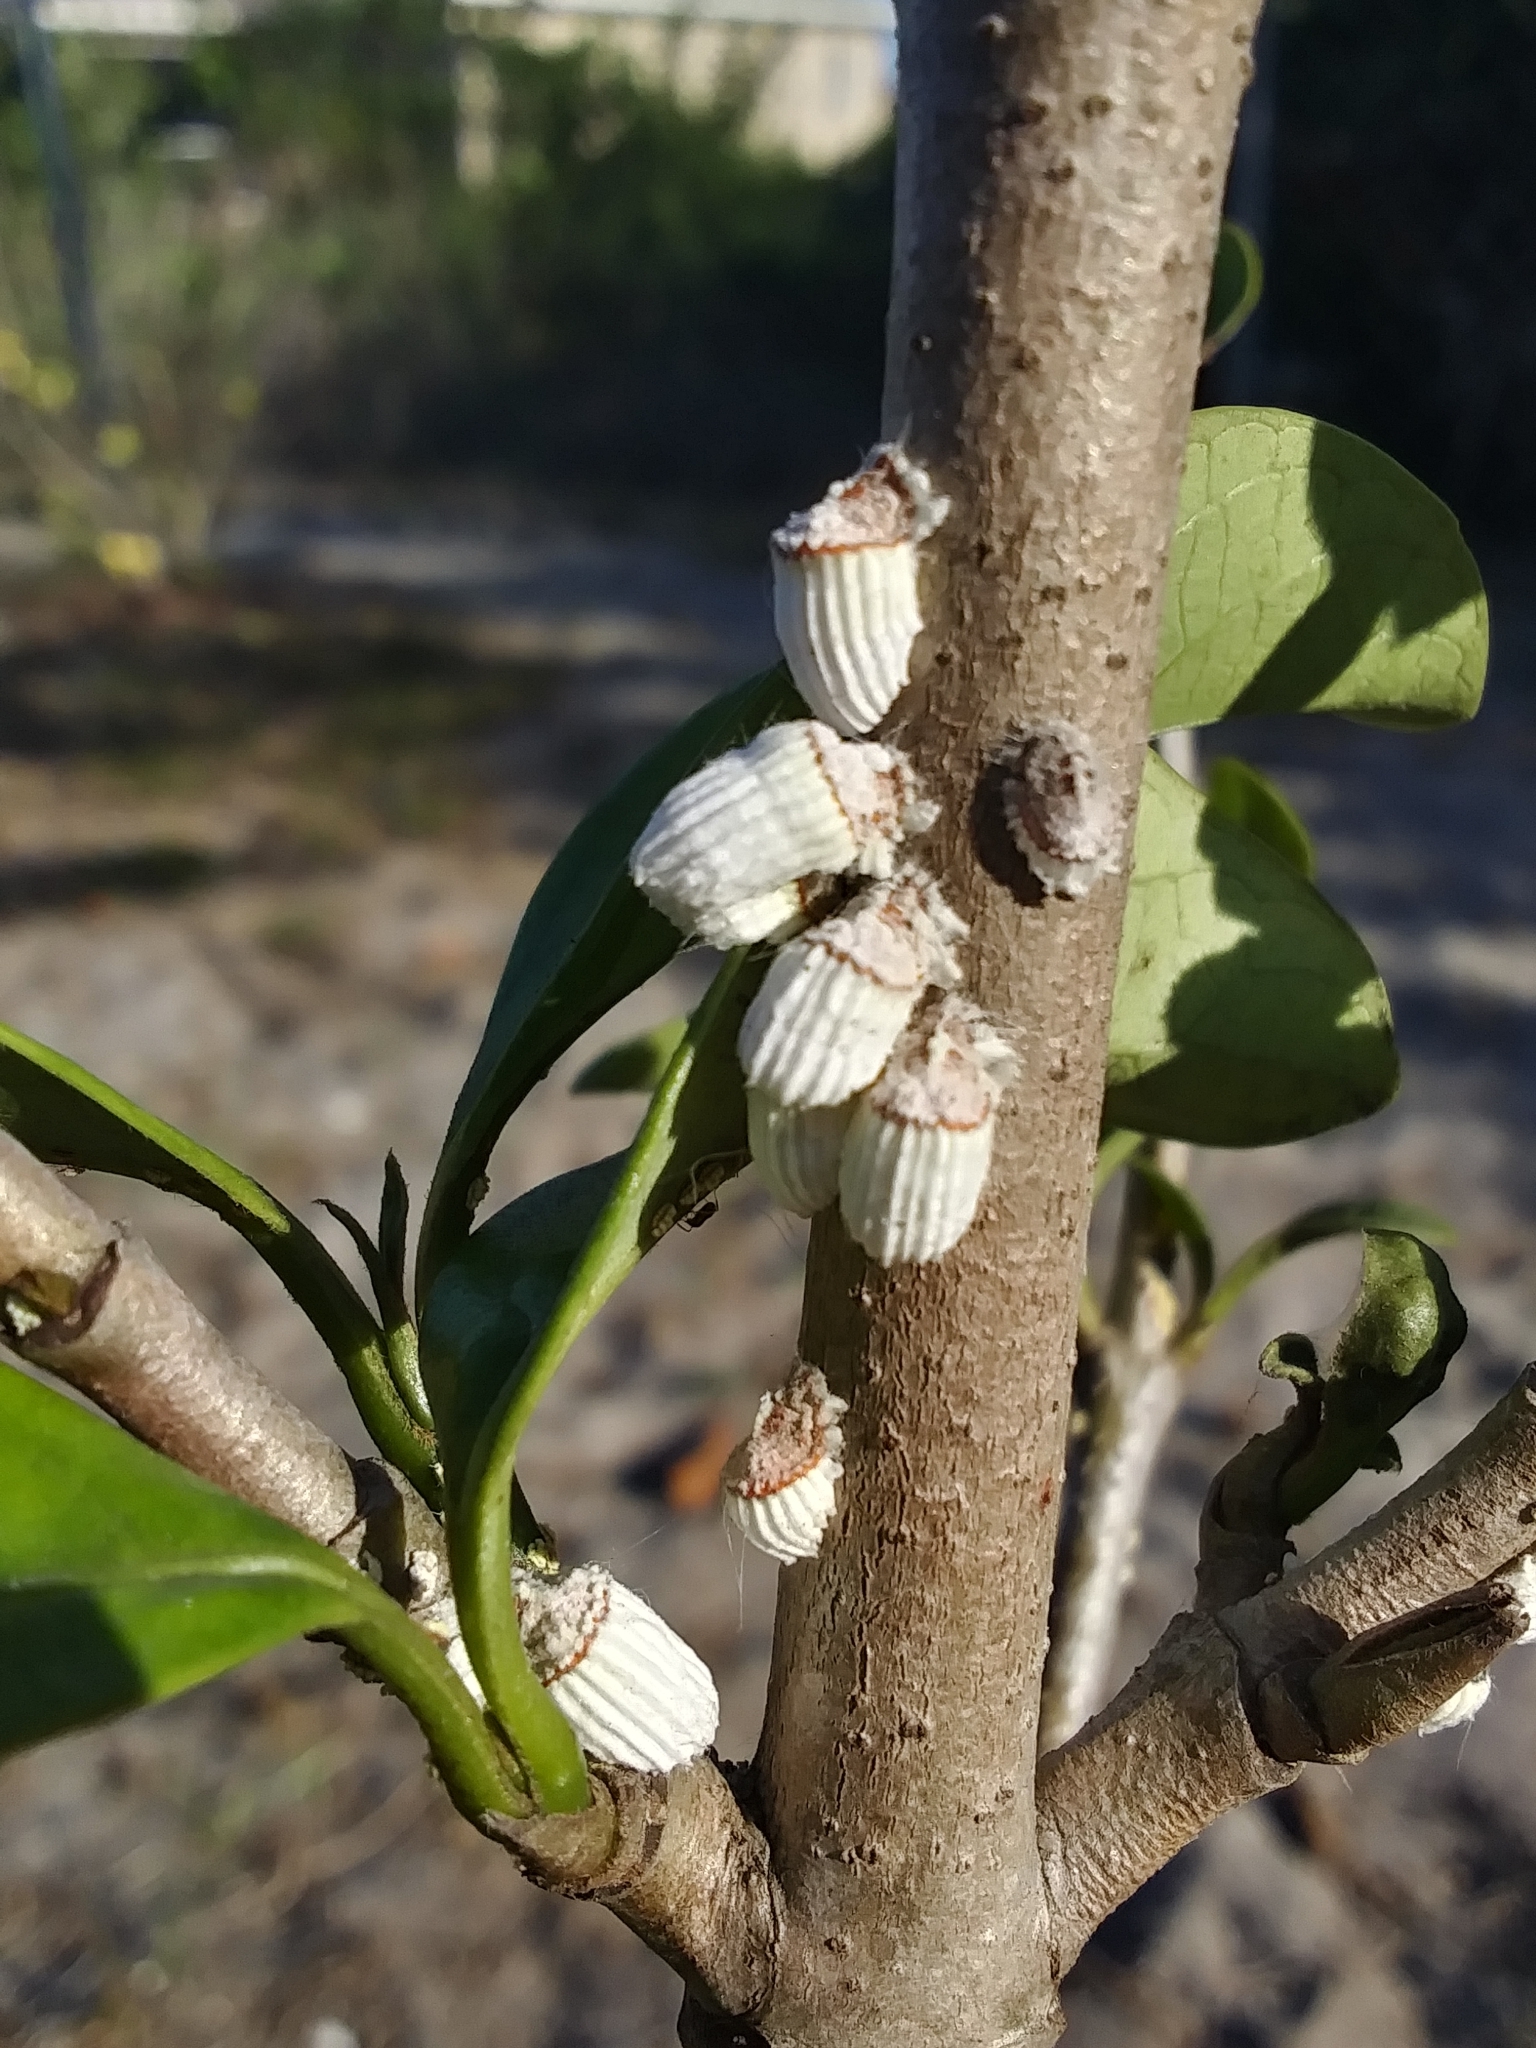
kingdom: Animalia
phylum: Arthropoda
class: Insecta
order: Hemiptera
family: Margarodidae
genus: Icerya
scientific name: Icerya purchasi
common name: Cottony cushion scale
